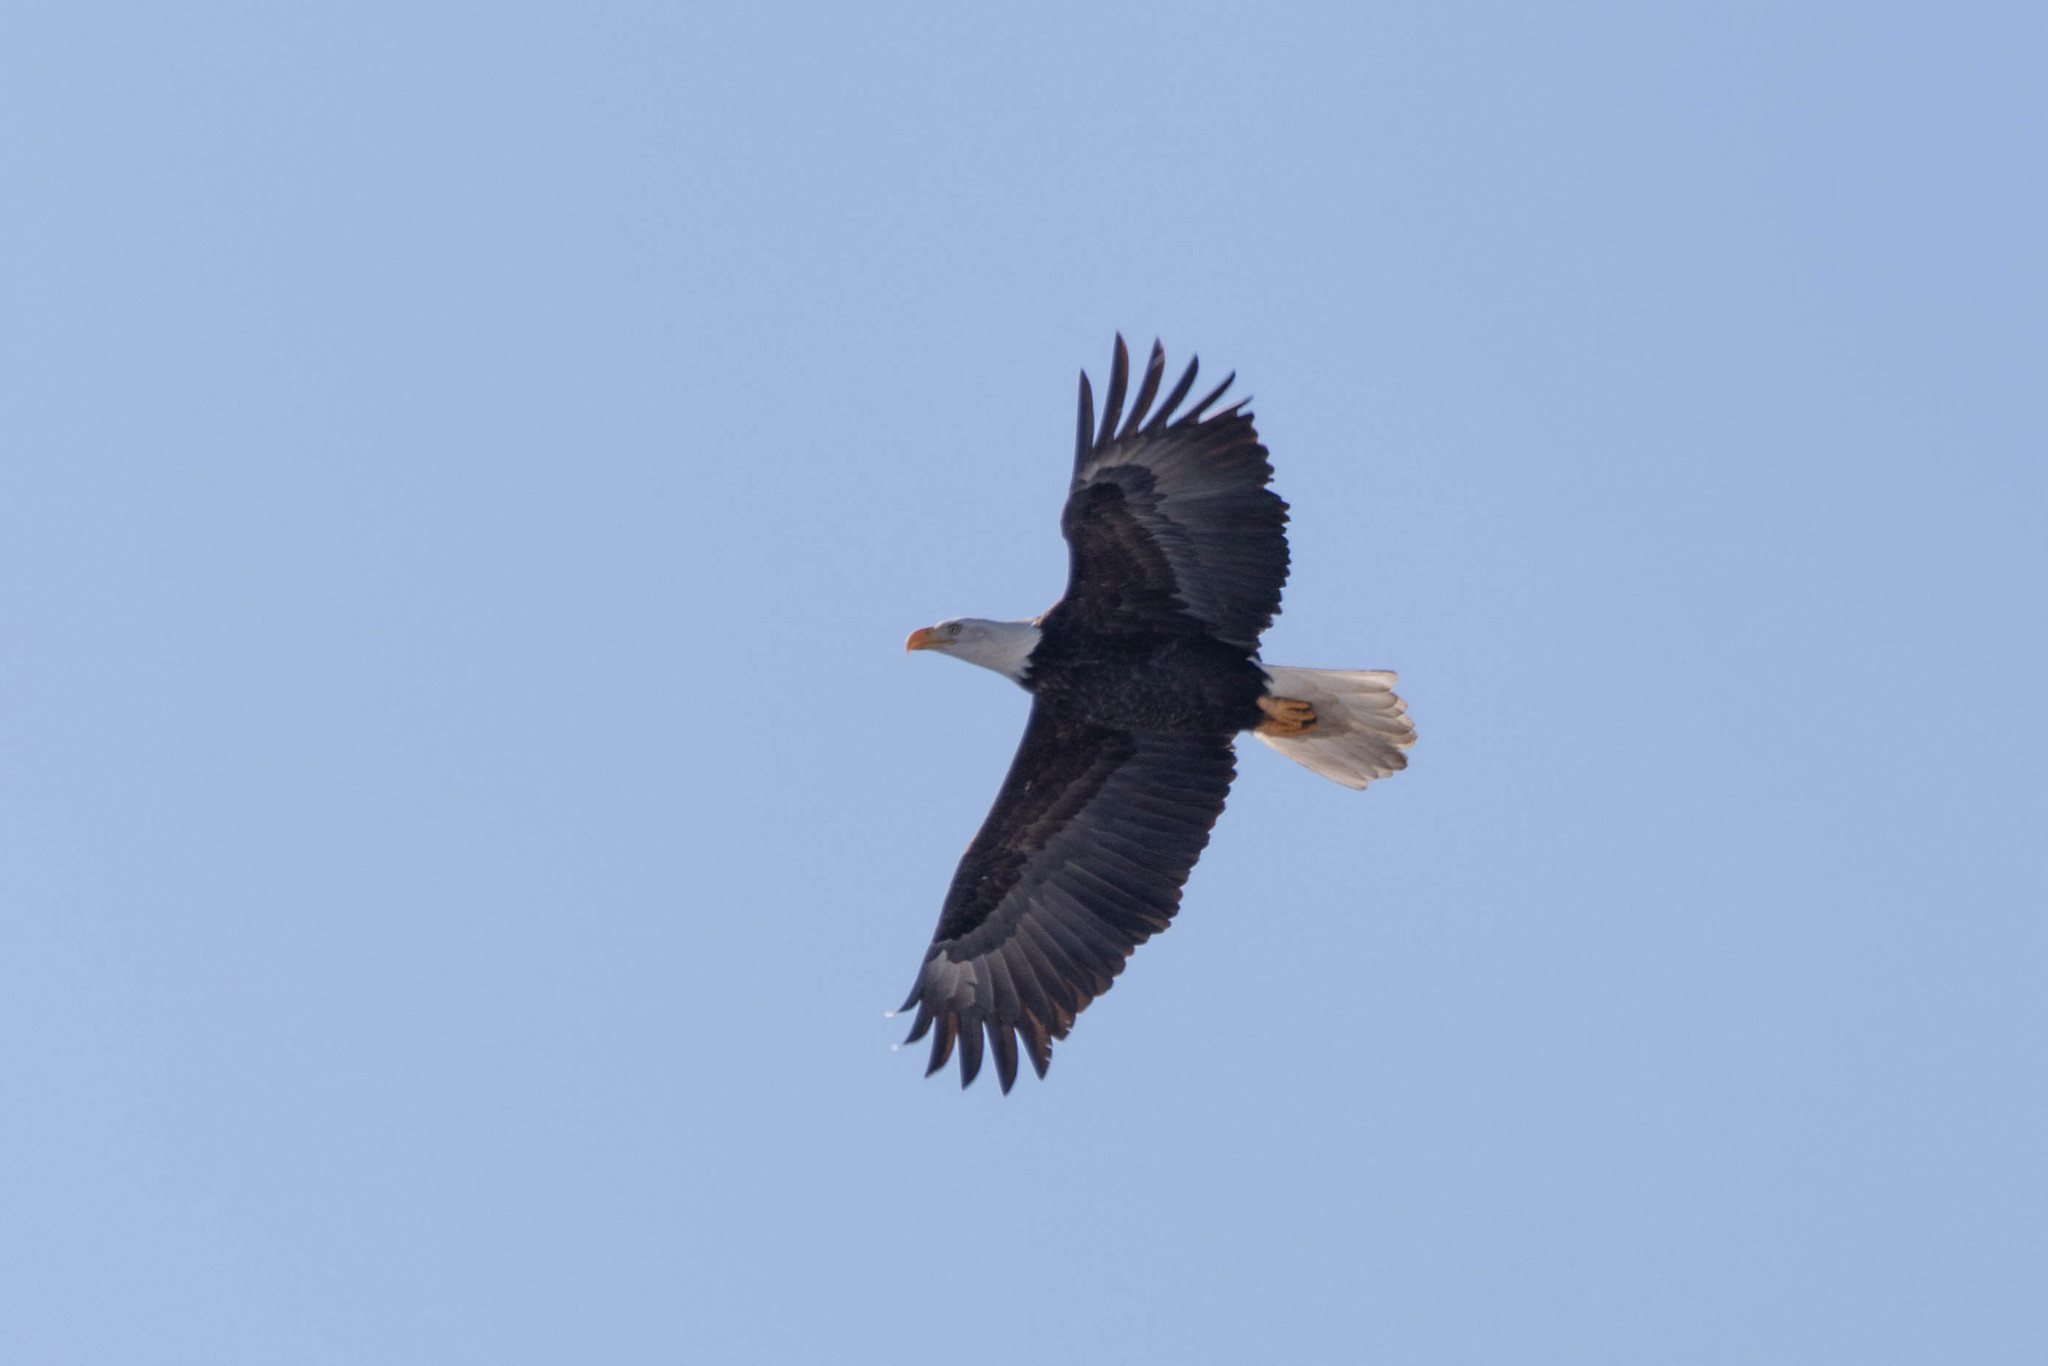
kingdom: Animalia
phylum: Chordata
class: Aves
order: Accipitriformes
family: Accipitridae
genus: Haliaeetus
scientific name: Haliaeetus leucocephalus
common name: Bald eagle
